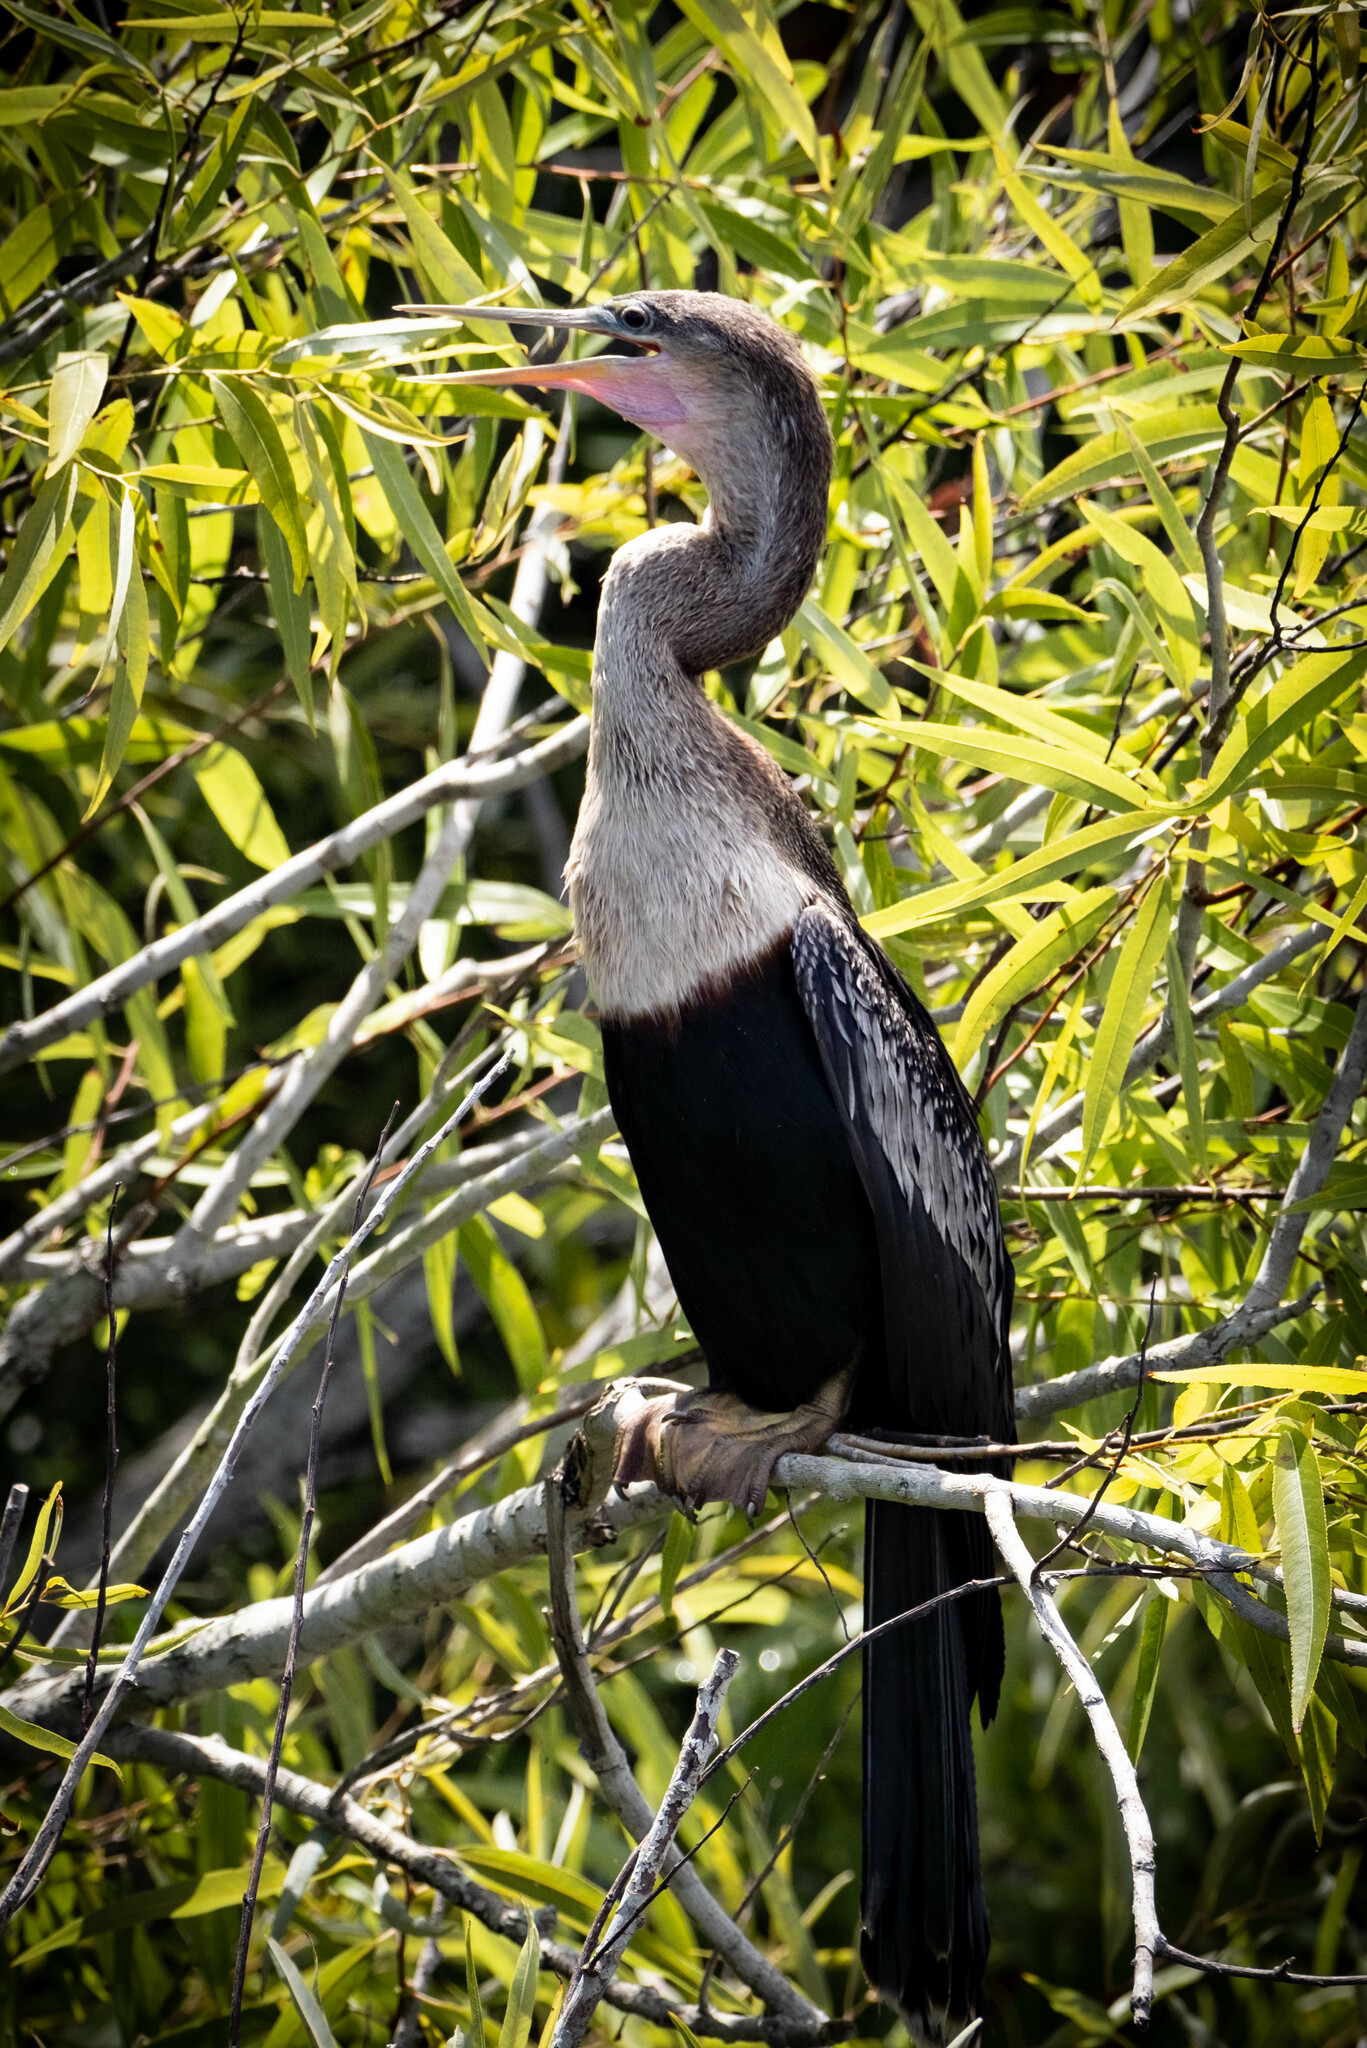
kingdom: Animalia
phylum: Chordata
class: Aves
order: Suliformes
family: Anhingidae
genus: Anhinga
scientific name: Anhinga anhinga
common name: Anhinga
